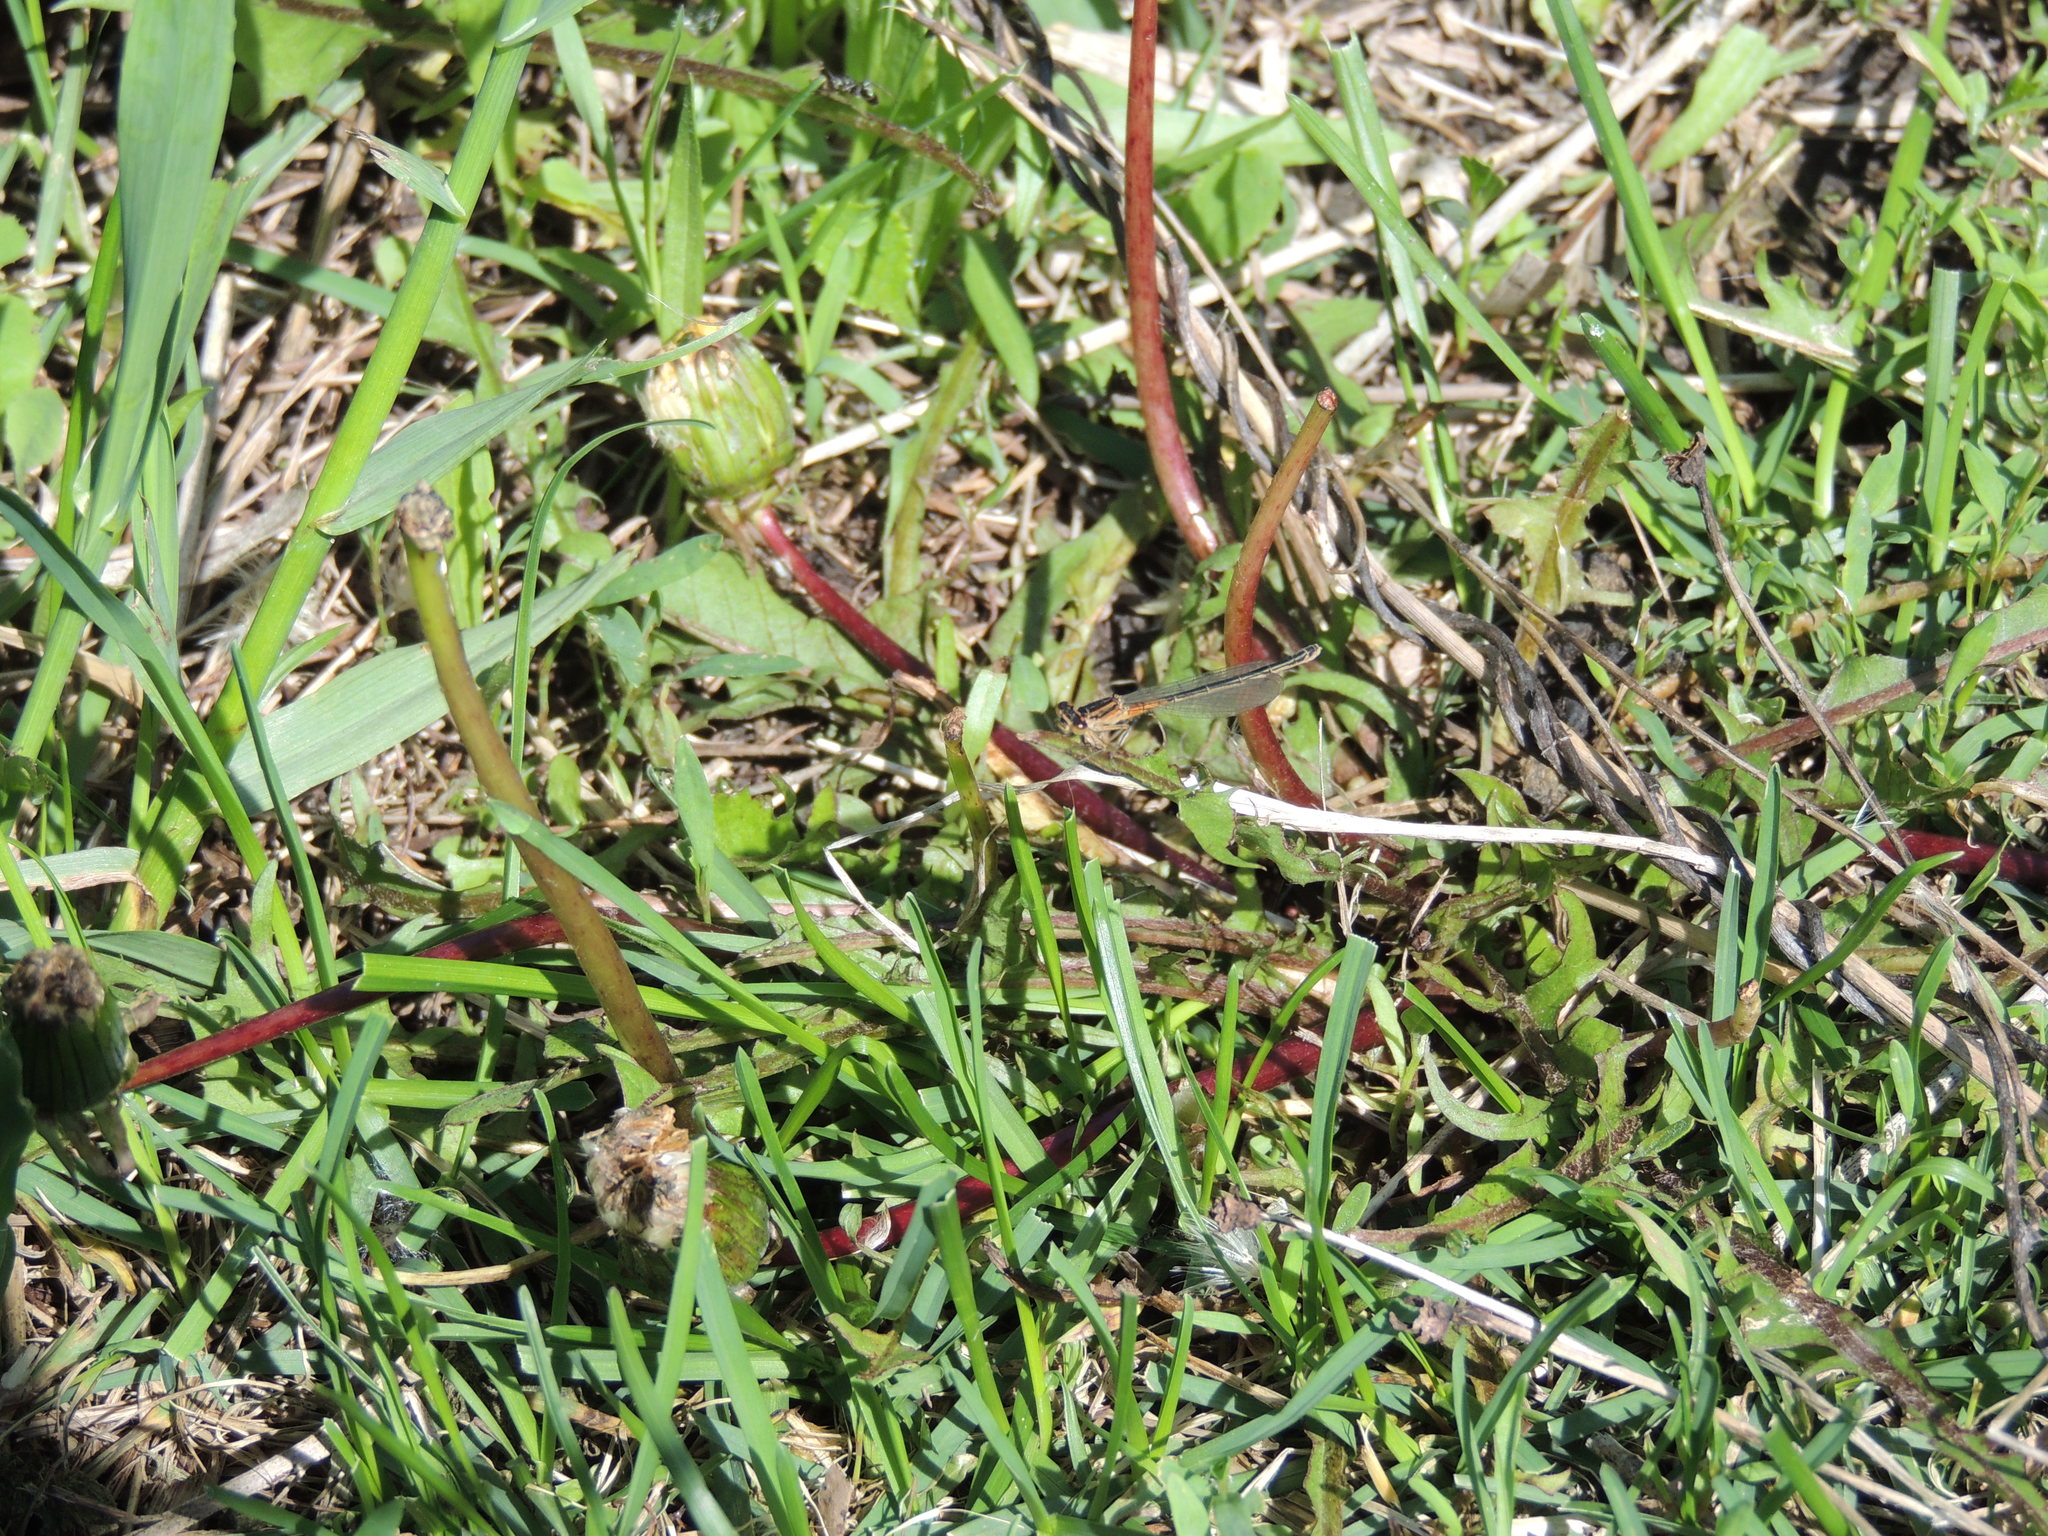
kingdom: Animalia
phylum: Arthropoda
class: Insecta
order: Odonata
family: Coenagrionidae
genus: Ischnura
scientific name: Ischnura verticalis
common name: Eastern forktail
